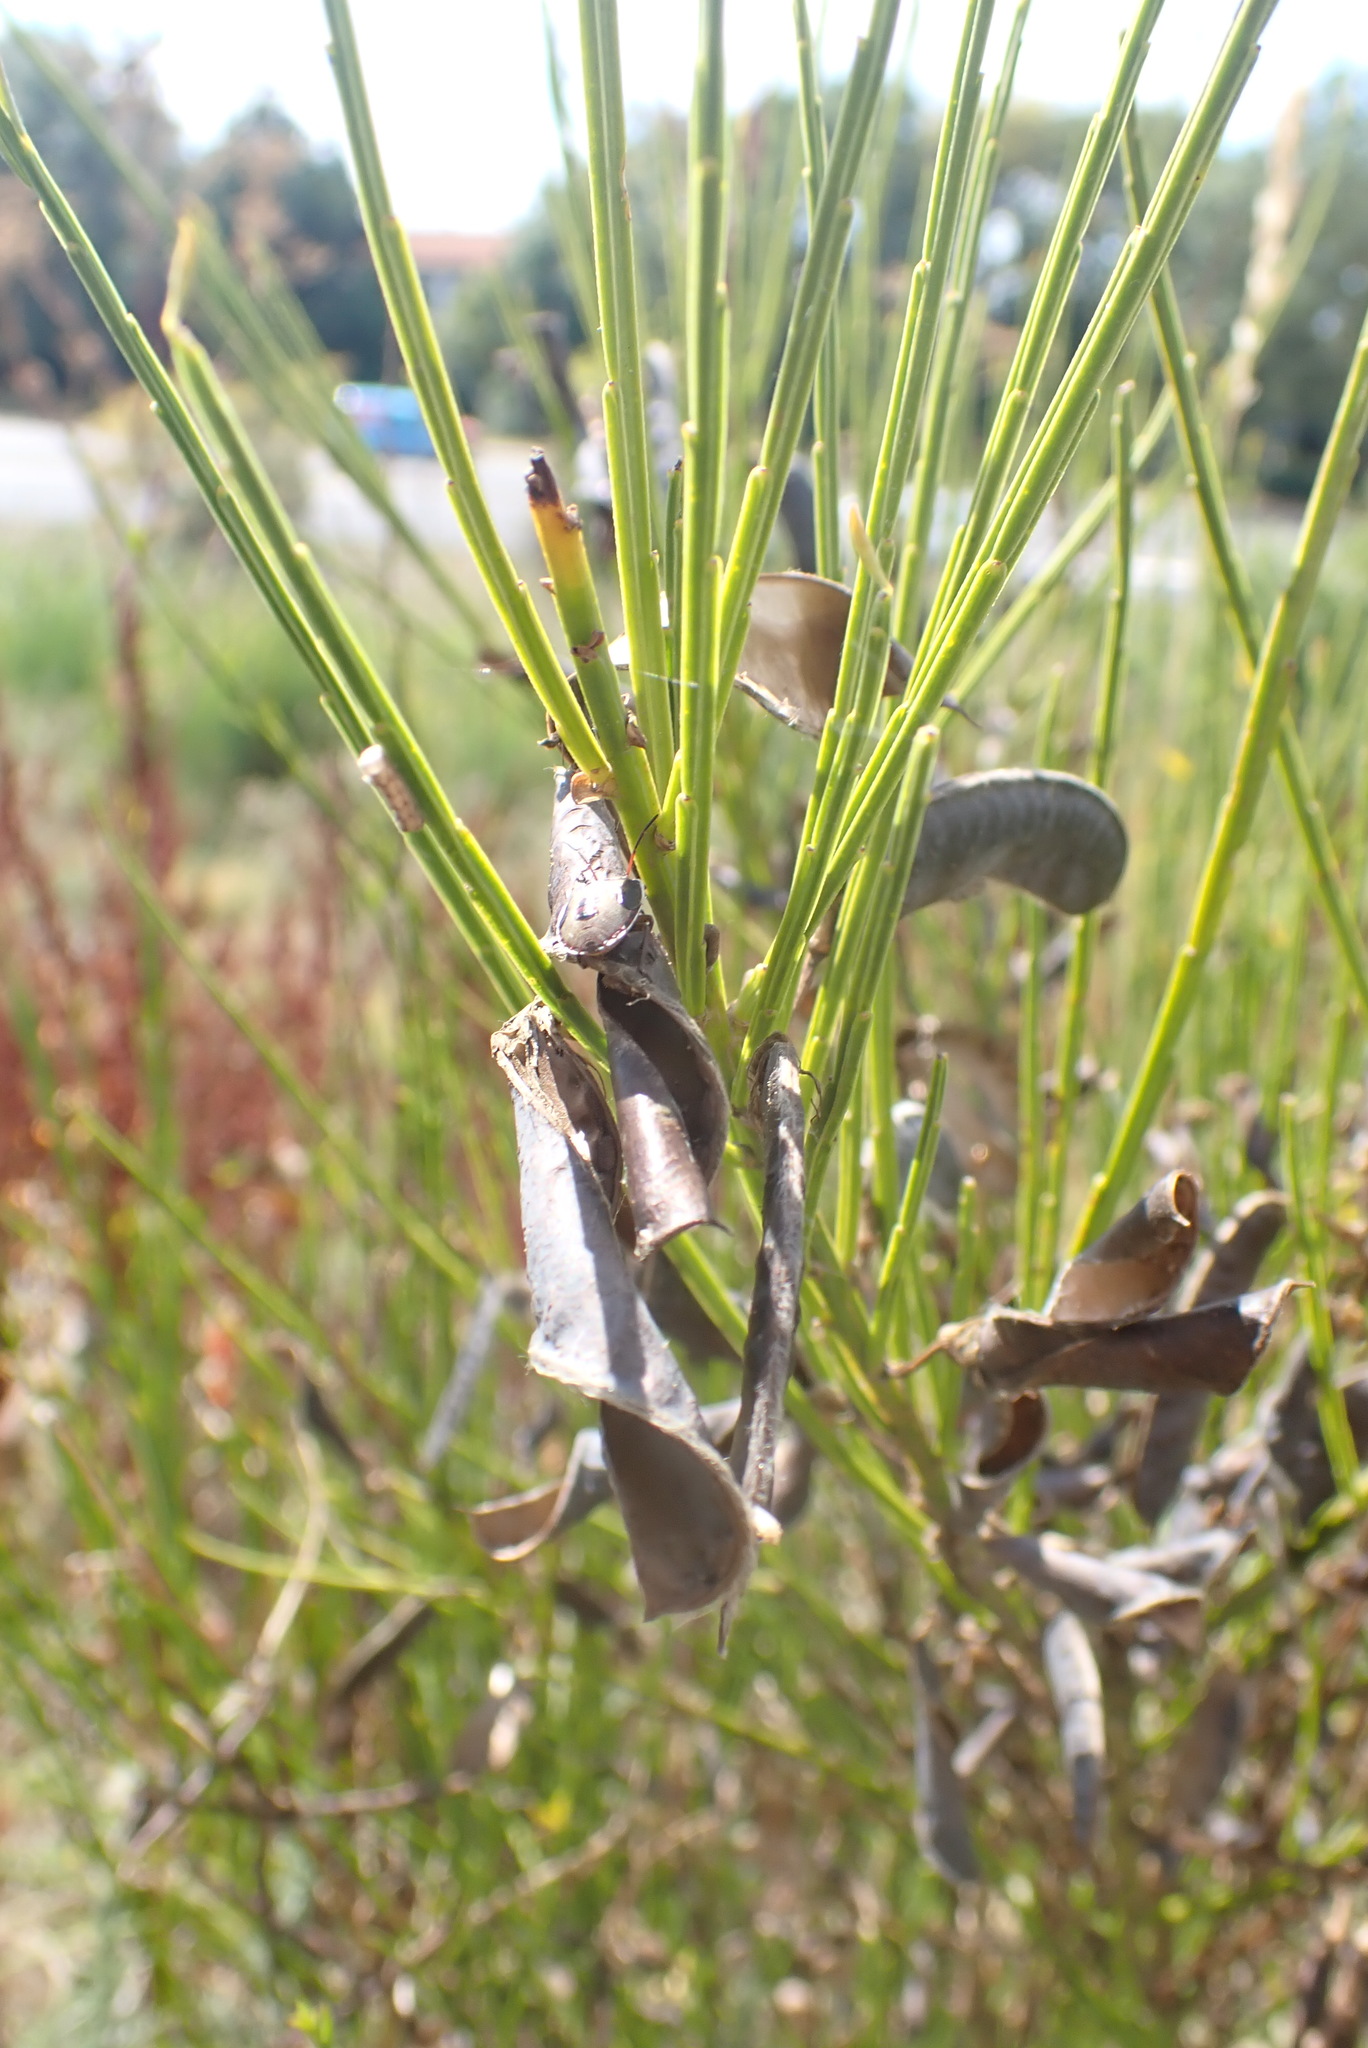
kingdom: Plantae
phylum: Tracheophyta
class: Magnoliopsida
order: Fabales
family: Fabaceae
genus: Cytisus
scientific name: Cytisus scoparius
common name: Scotch broom
